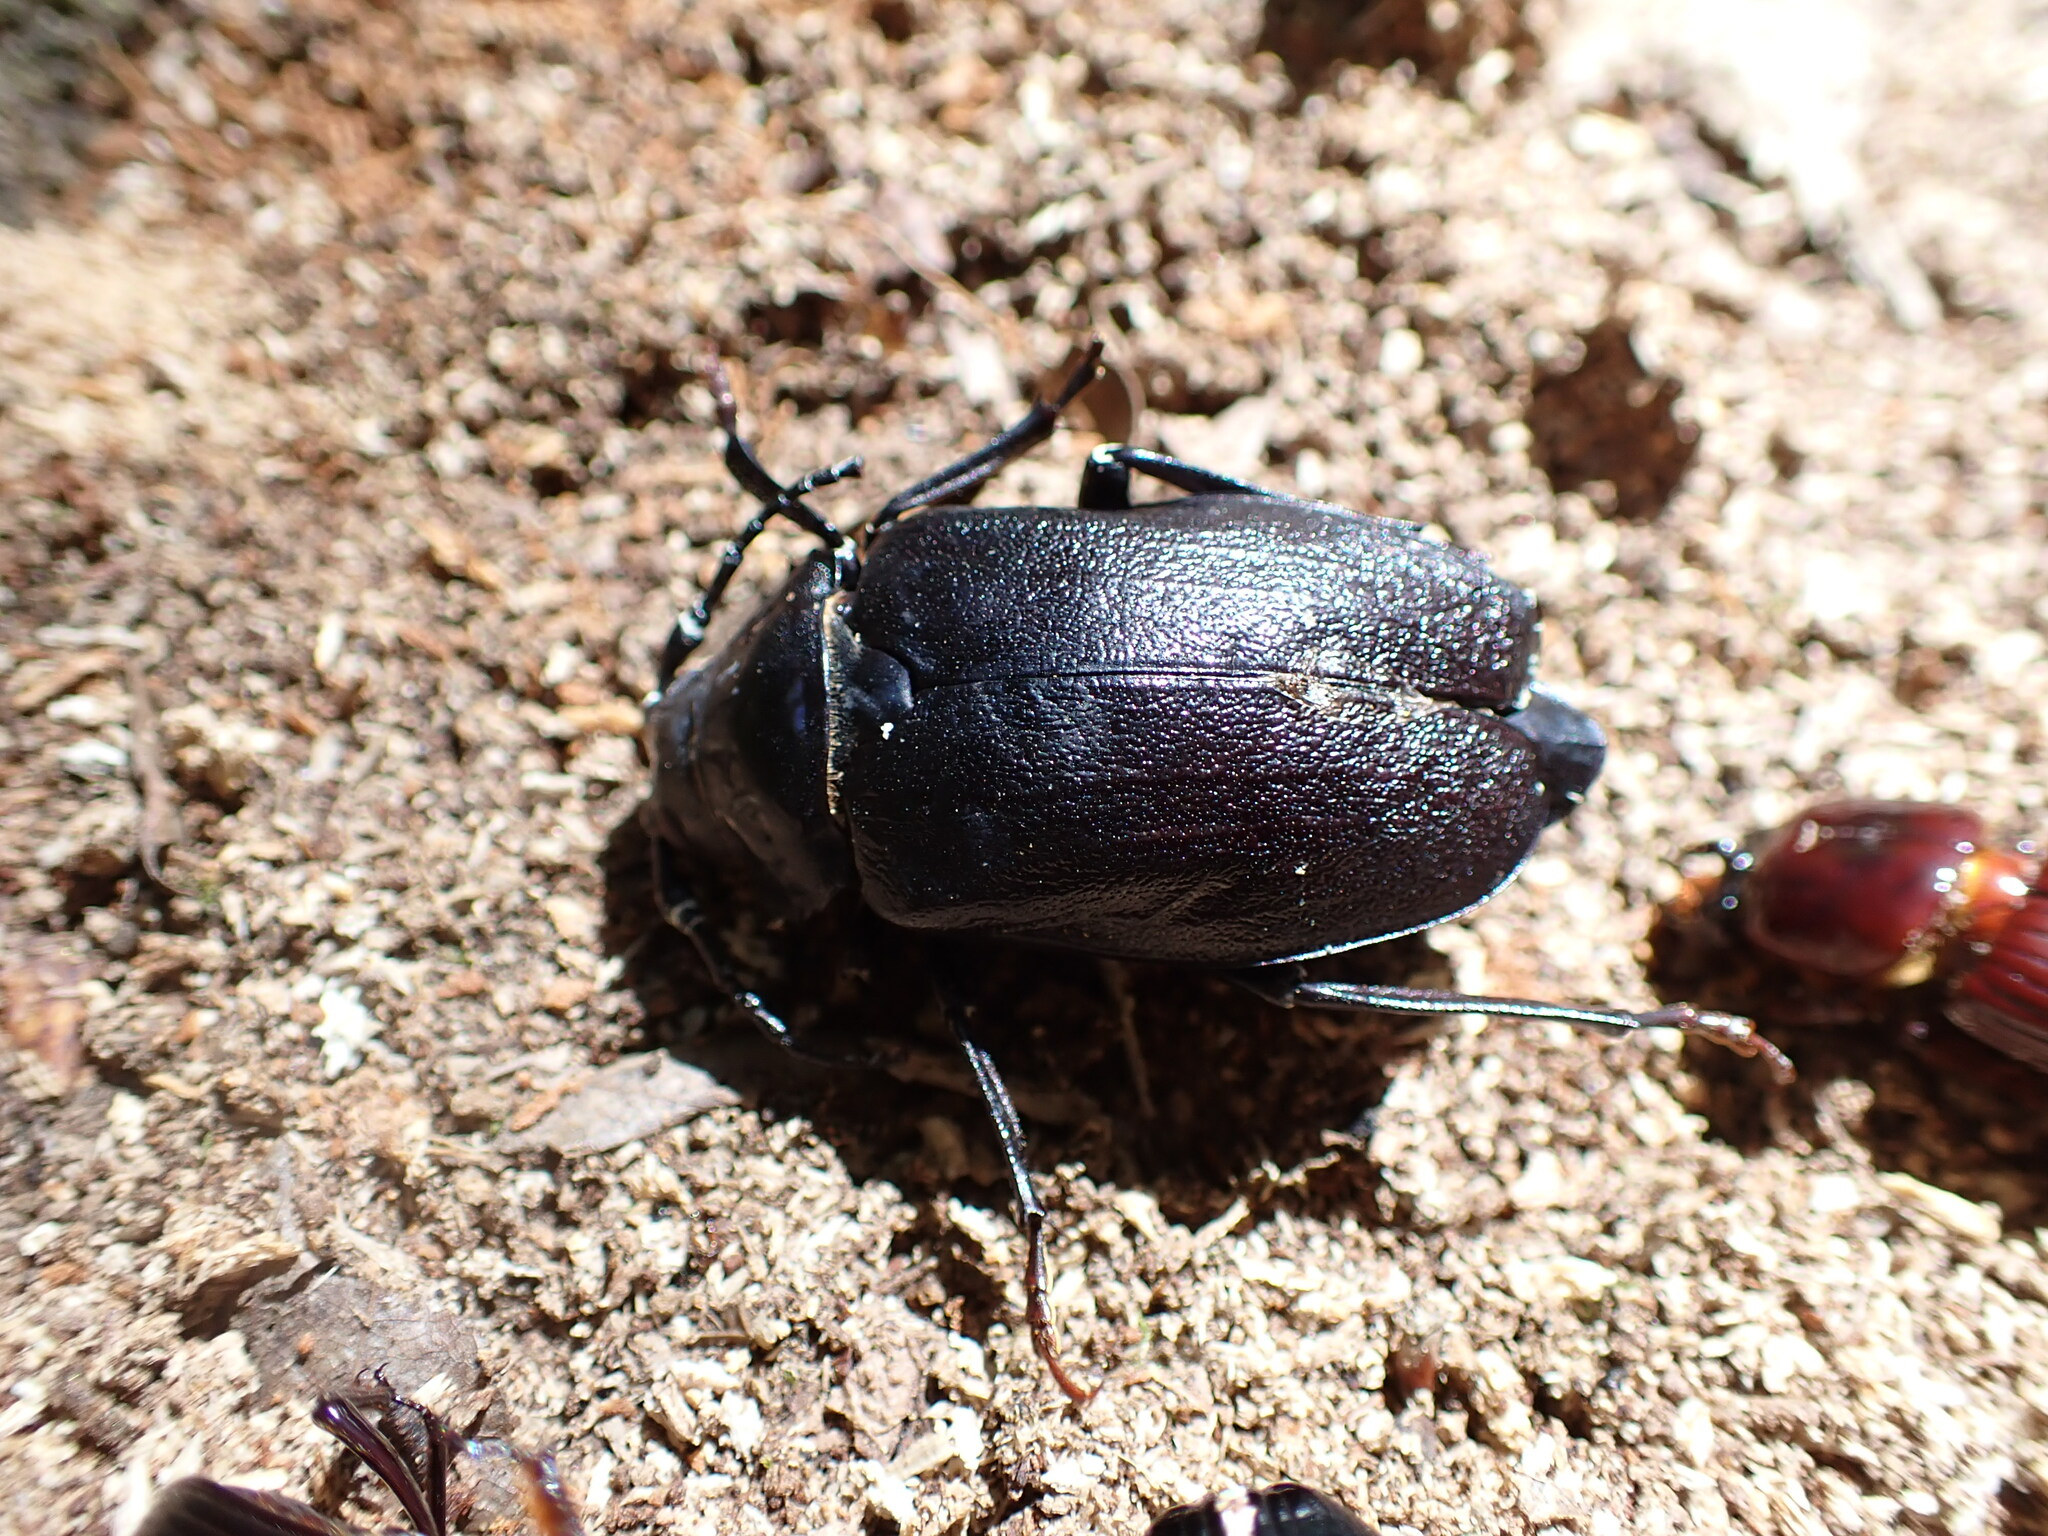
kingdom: Animalia
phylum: Arthropoda
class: Insecta
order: Coleoptera
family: Cerambycidae
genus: Prionus
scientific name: Prionus laticollis
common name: Broad necked prionus
